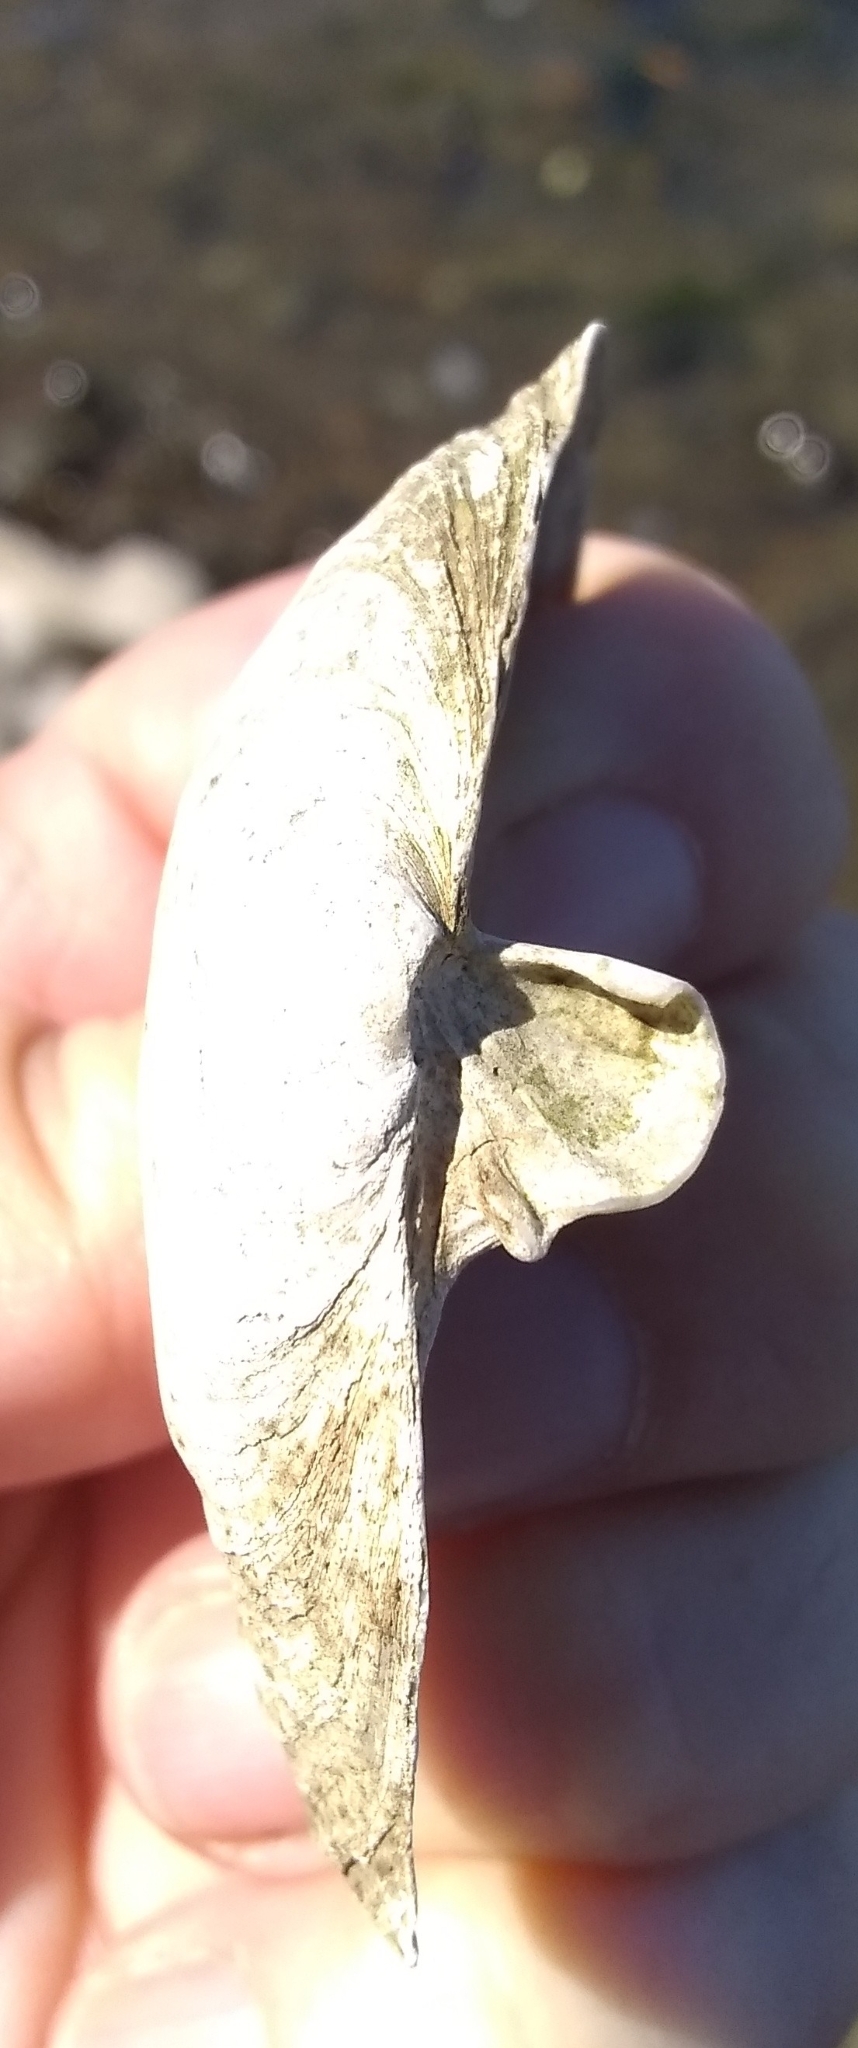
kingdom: Animalia
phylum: Mollusca
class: Bivalvia
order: Myida
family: Myidae
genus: Mya
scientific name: Mya arenaria
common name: Soft-shelled clam
